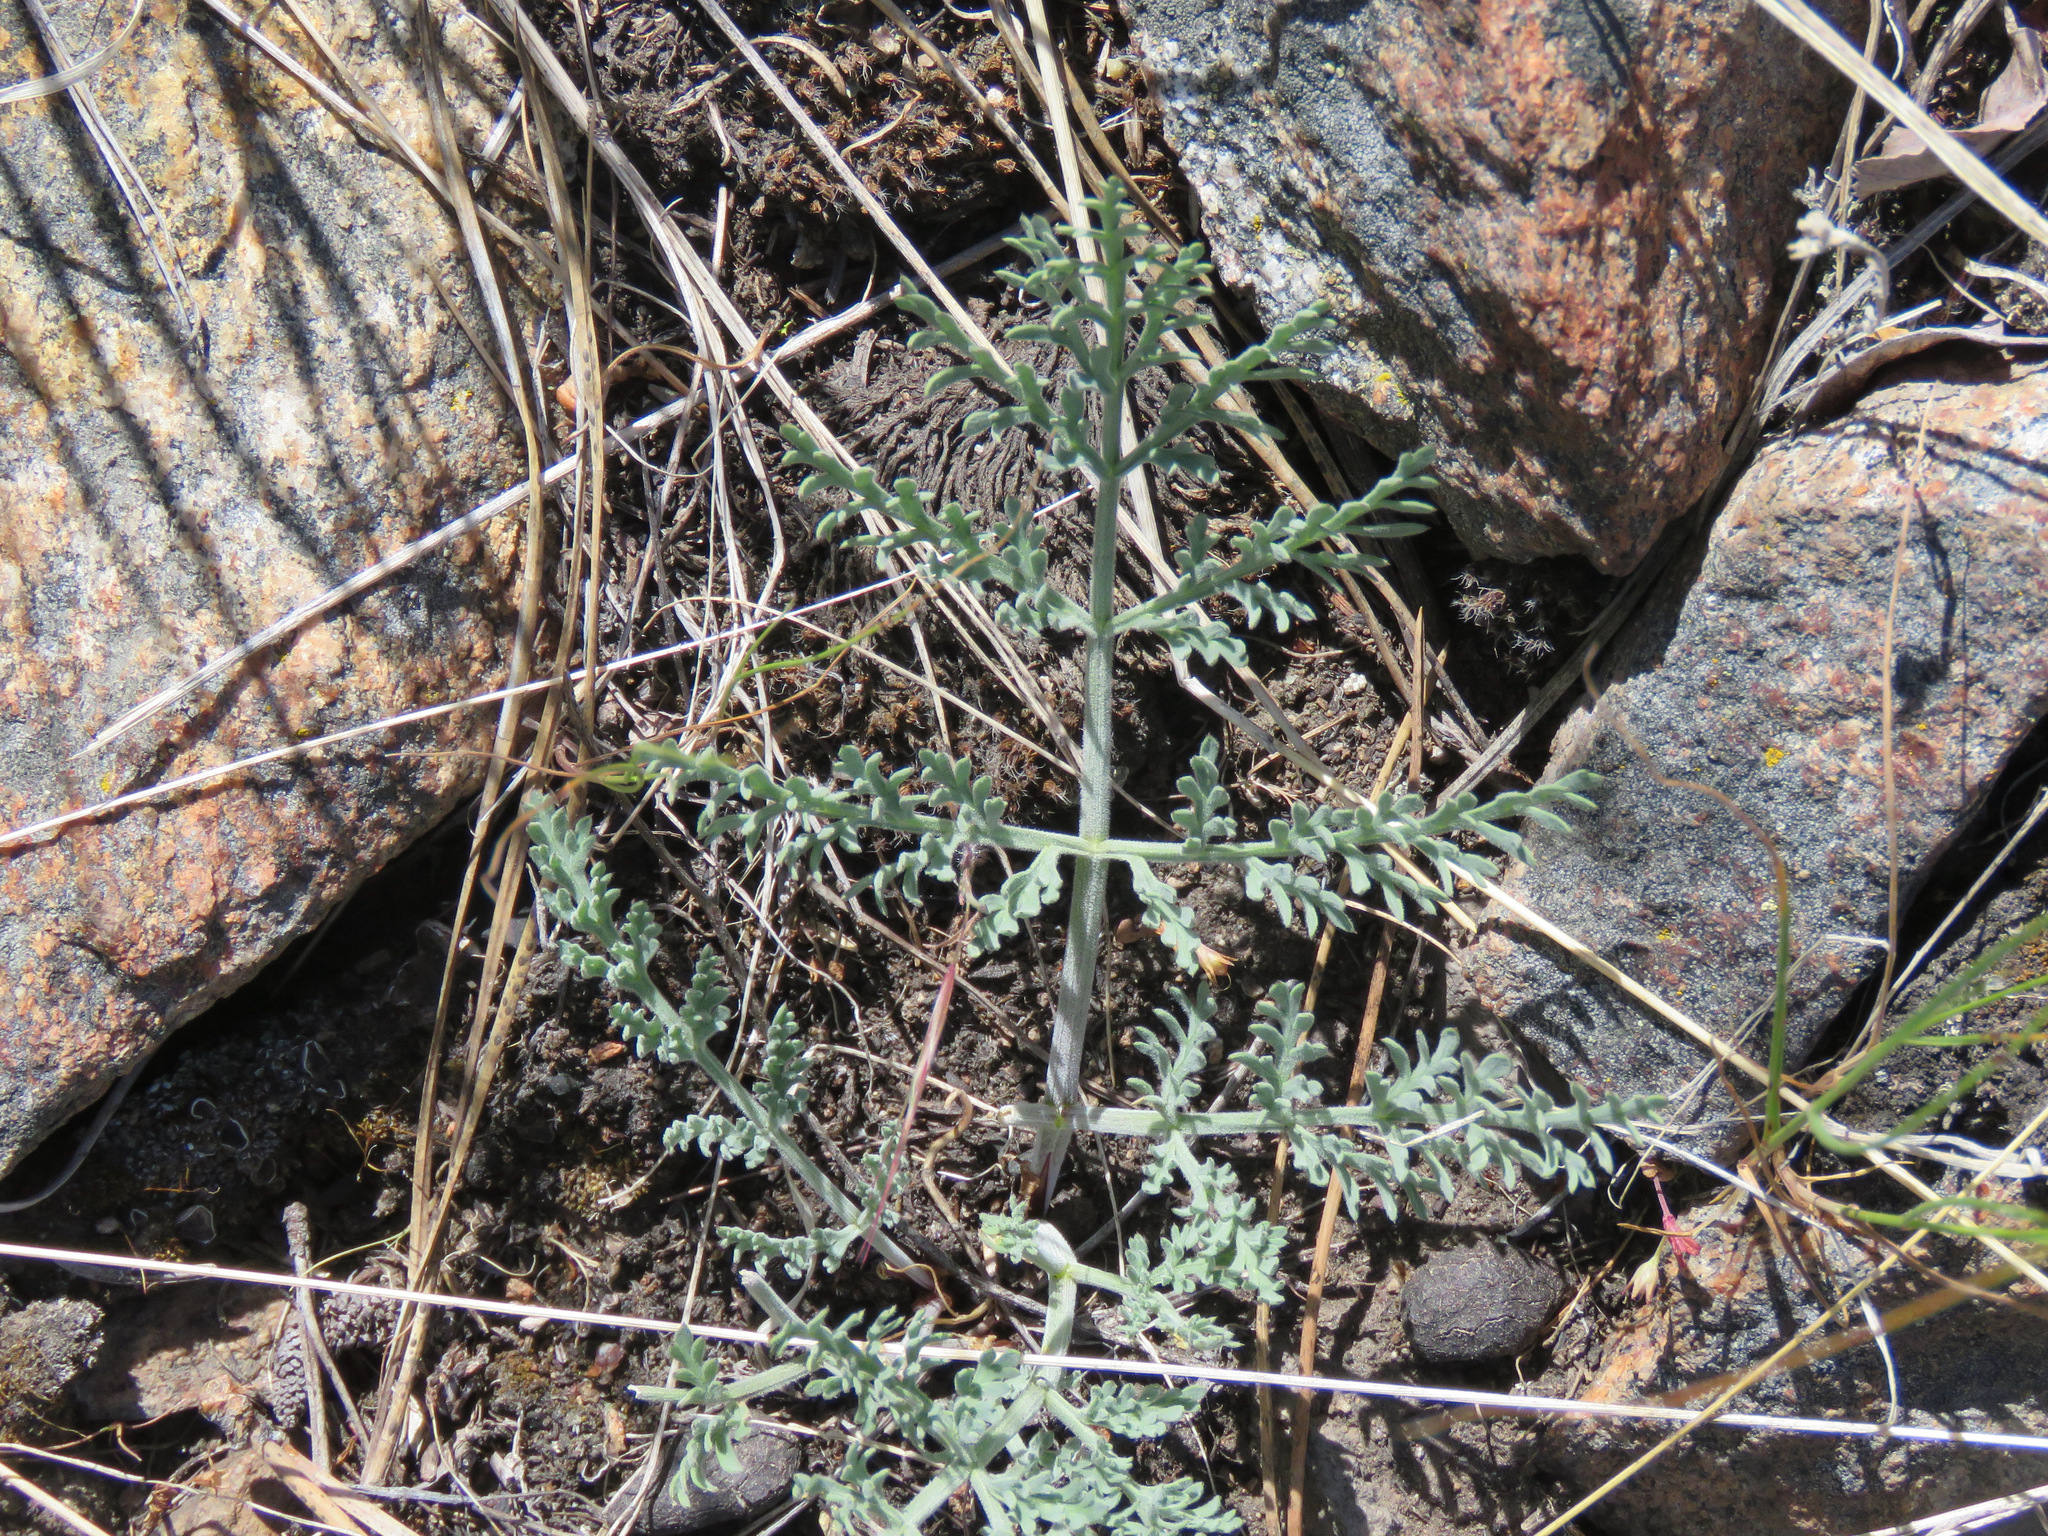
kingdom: Plantae
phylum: Tracheophyta
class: Magnoliopsida
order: Apiales
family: Apiaceae
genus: Lomatium
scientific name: Lomatium macrocarpum
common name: Big-seed biscuitroot
